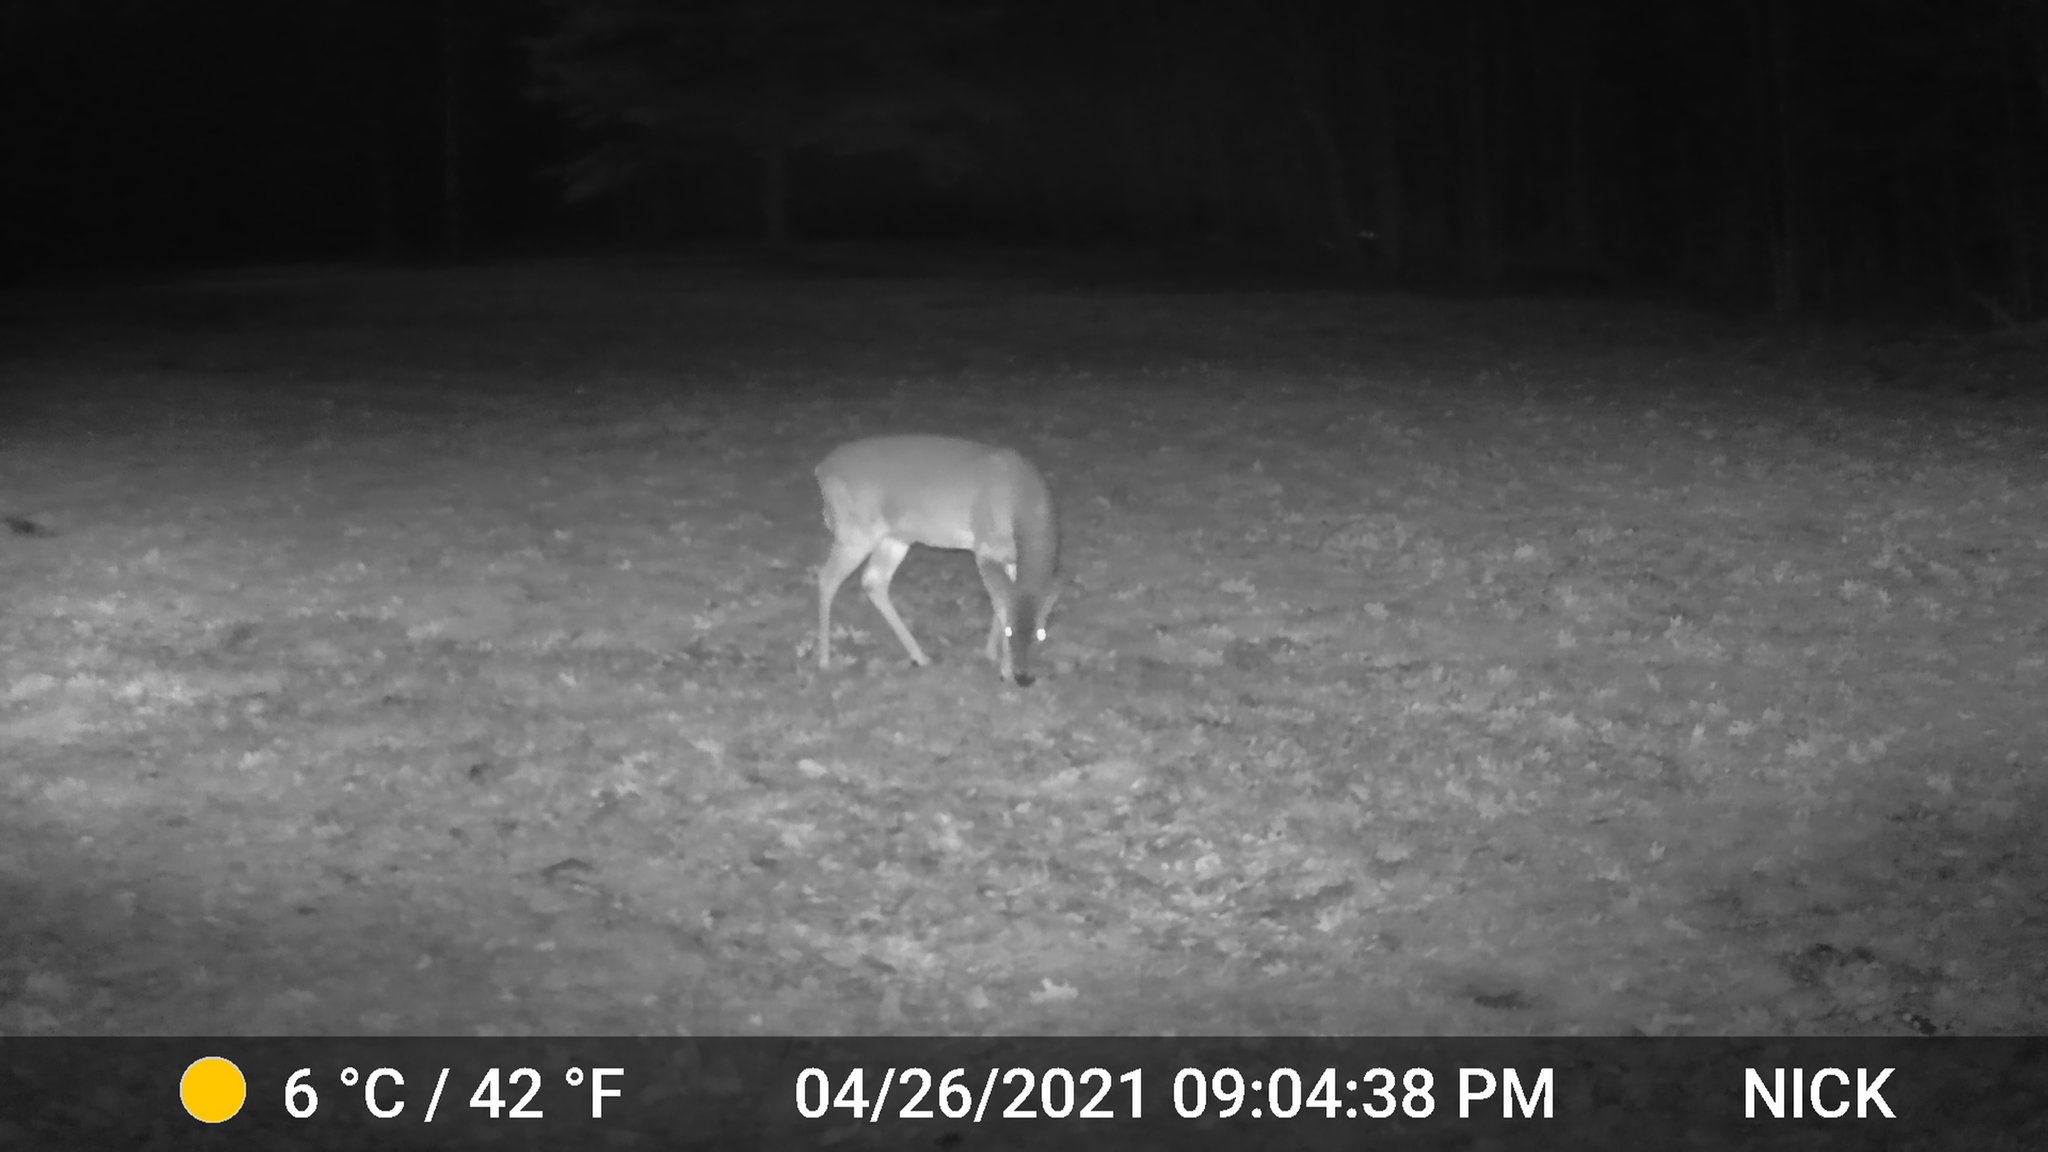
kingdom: Animalia
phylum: Chordata
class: Mammalia
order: Artiodactyla
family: Cervidae
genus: Odocoileus
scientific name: Odocoileus virginianus
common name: White-tailed deer
